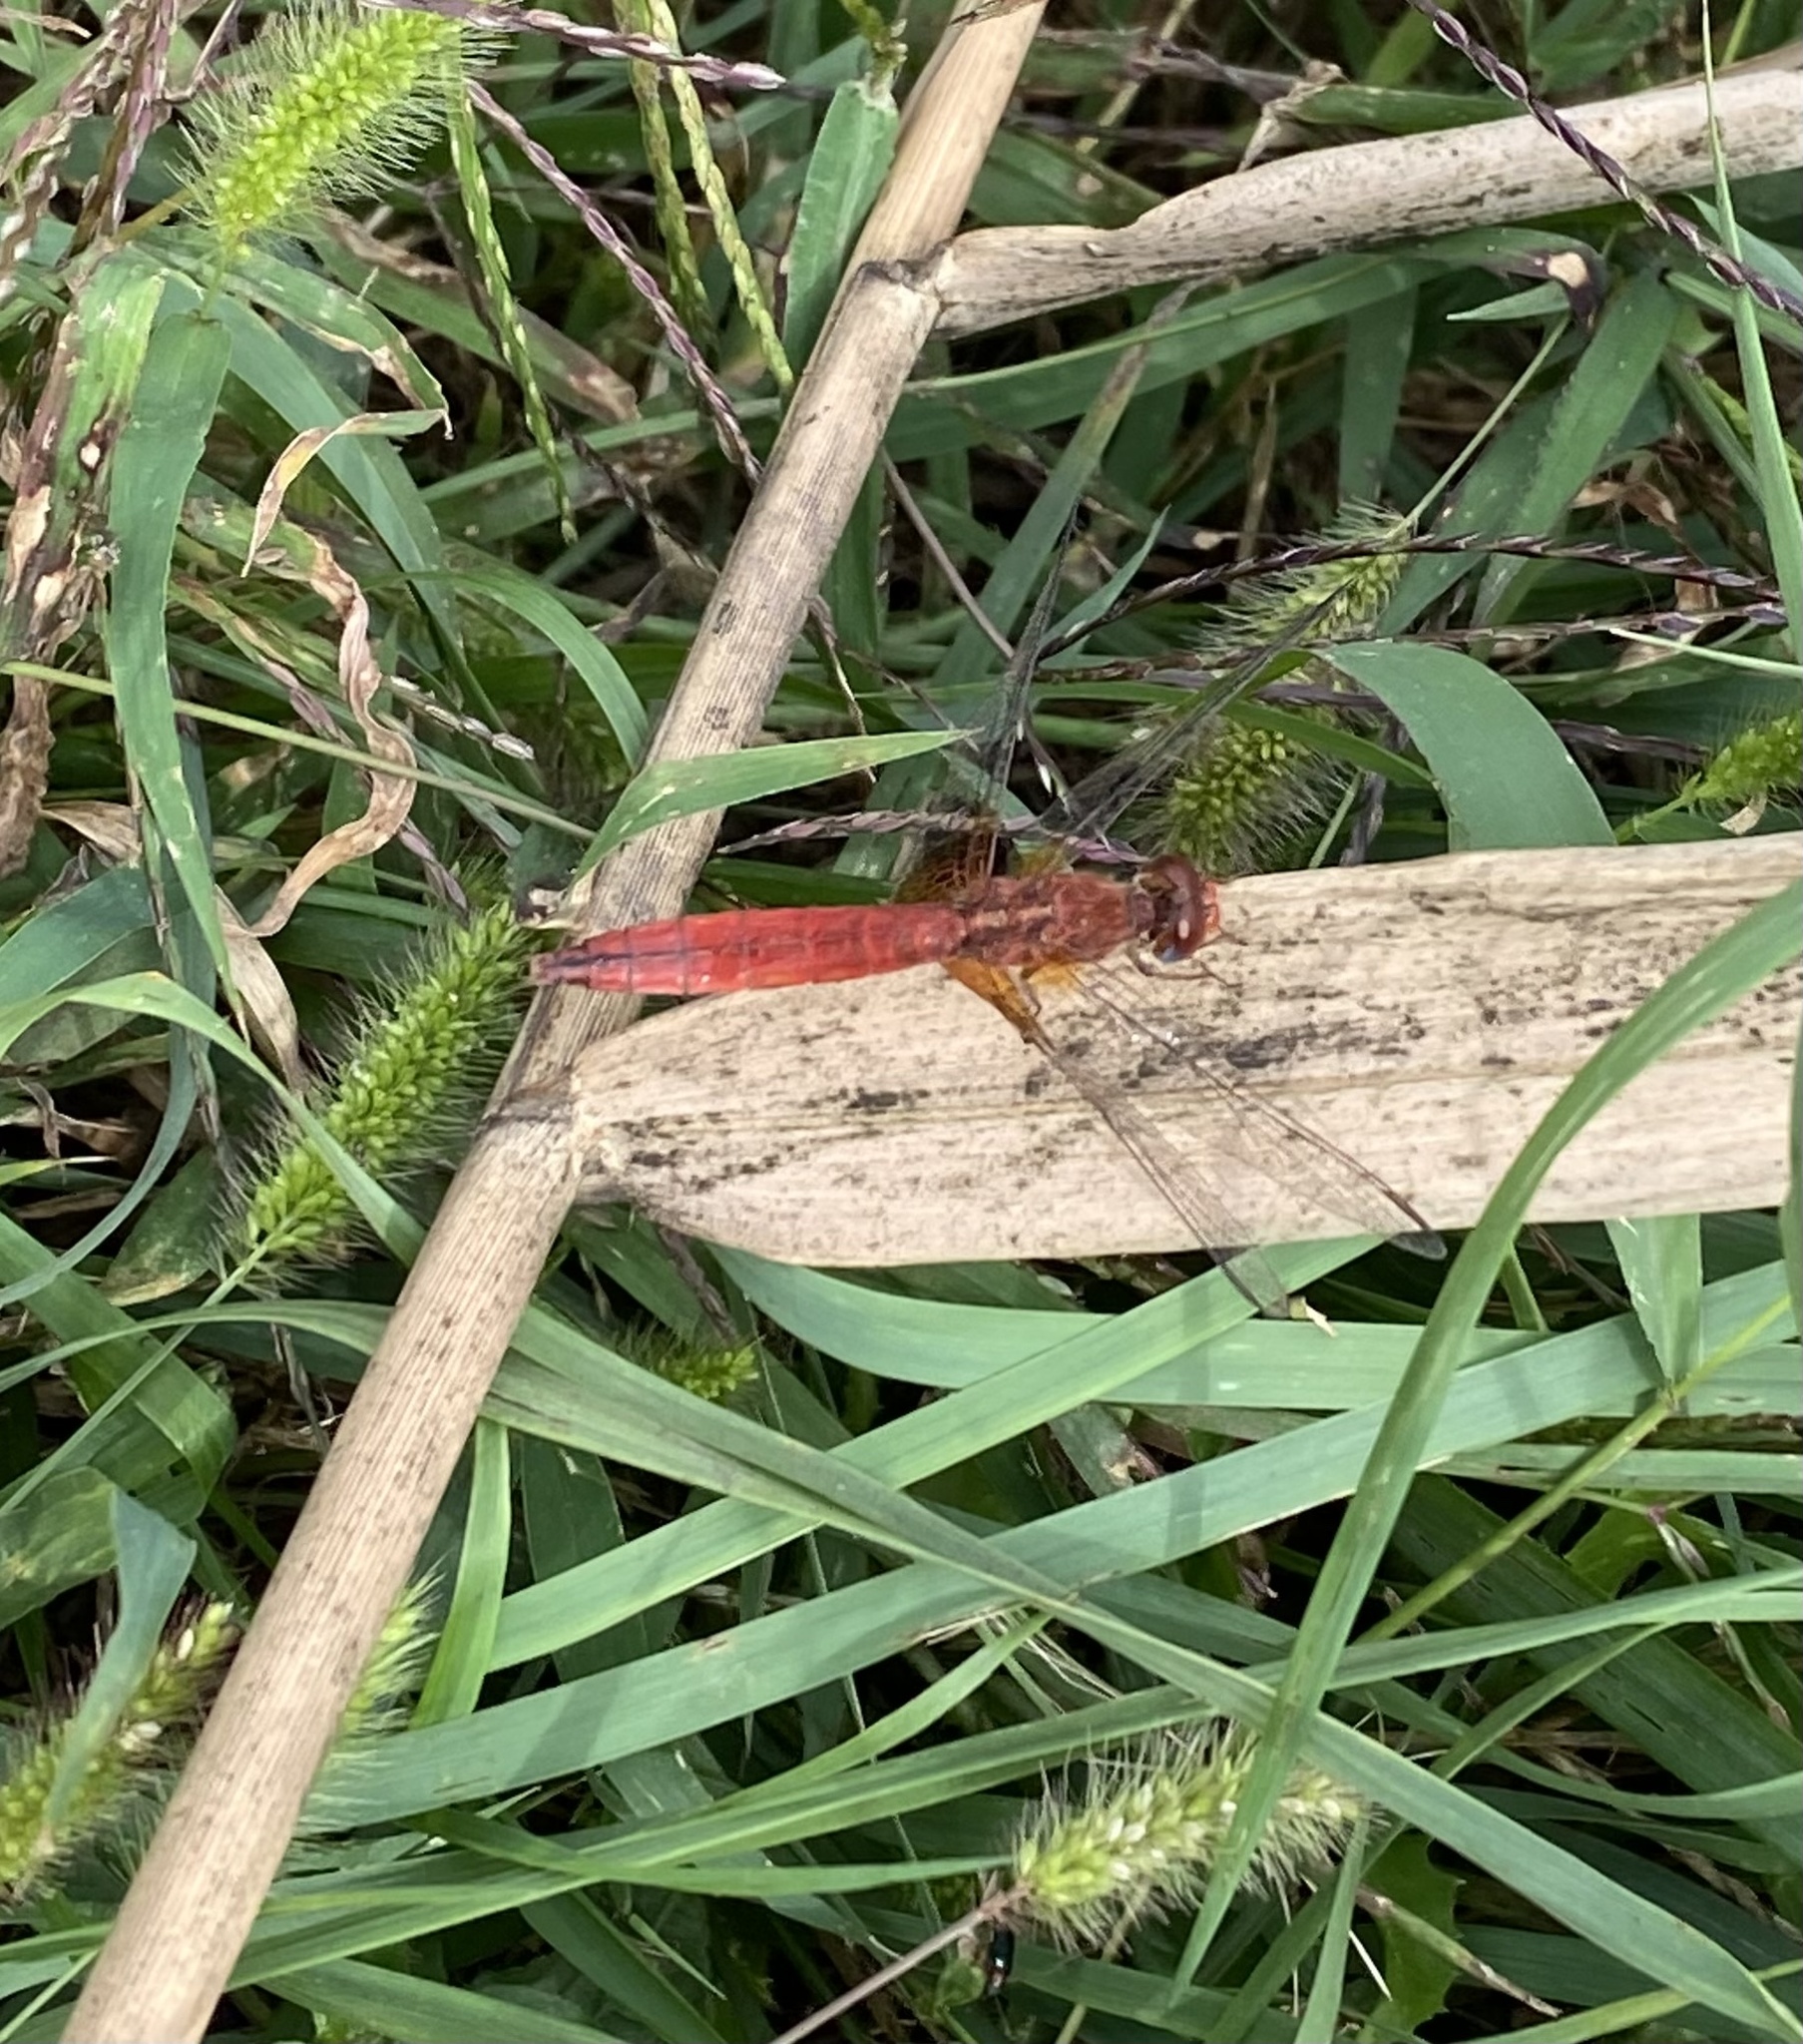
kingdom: Animalia
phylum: Arthropoda
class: Insecta
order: Odonata
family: Libellulidae
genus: Crocothemis
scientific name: Crocothemis erythraea
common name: Scarlet dragonfly
